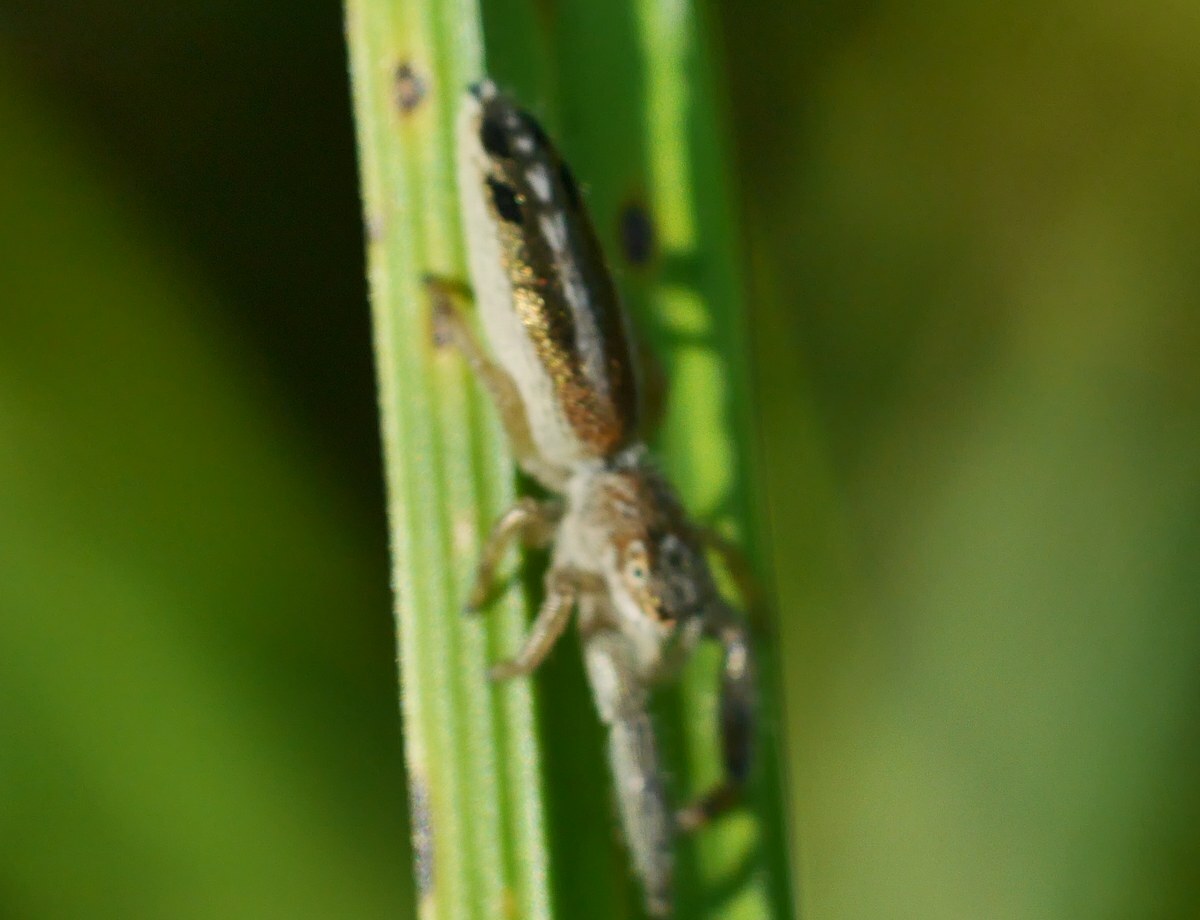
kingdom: Animalia
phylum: Arthropoda
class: Arachnida
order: Araneae
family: Salticidae
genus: Mendoza
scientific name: Mendoza canestrinii
